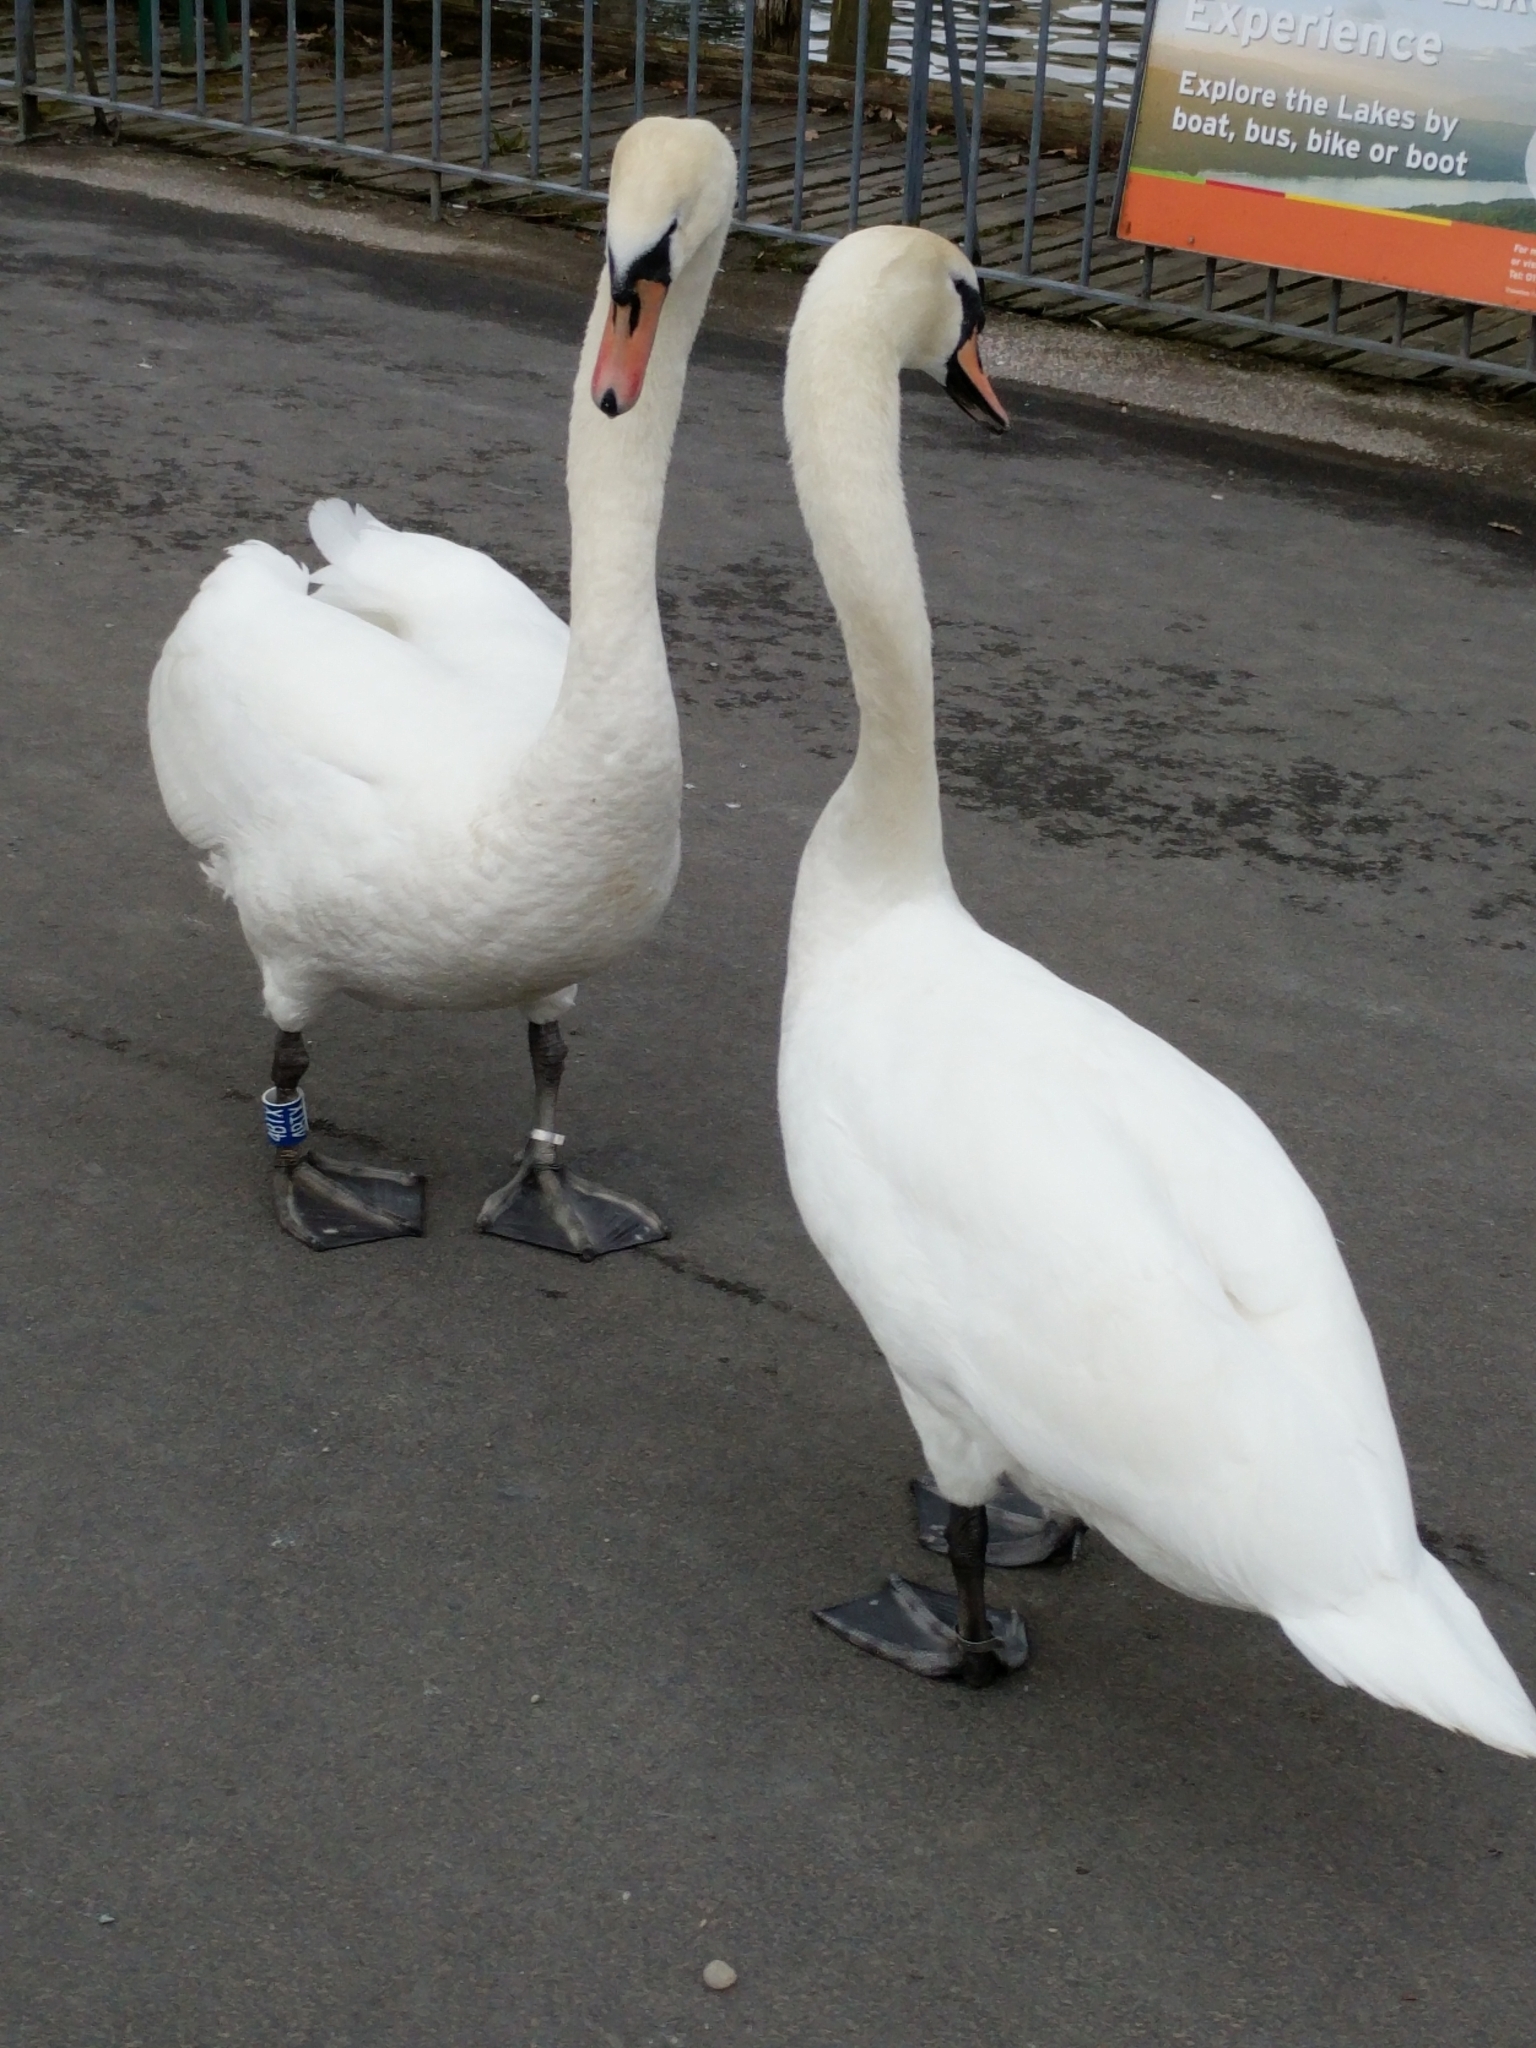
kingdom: Animalia
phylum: Chordata
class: Aves
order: Anseriformes
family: Anatidae
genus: Cygnus
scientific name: Cygnus olor
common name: Mute swan
